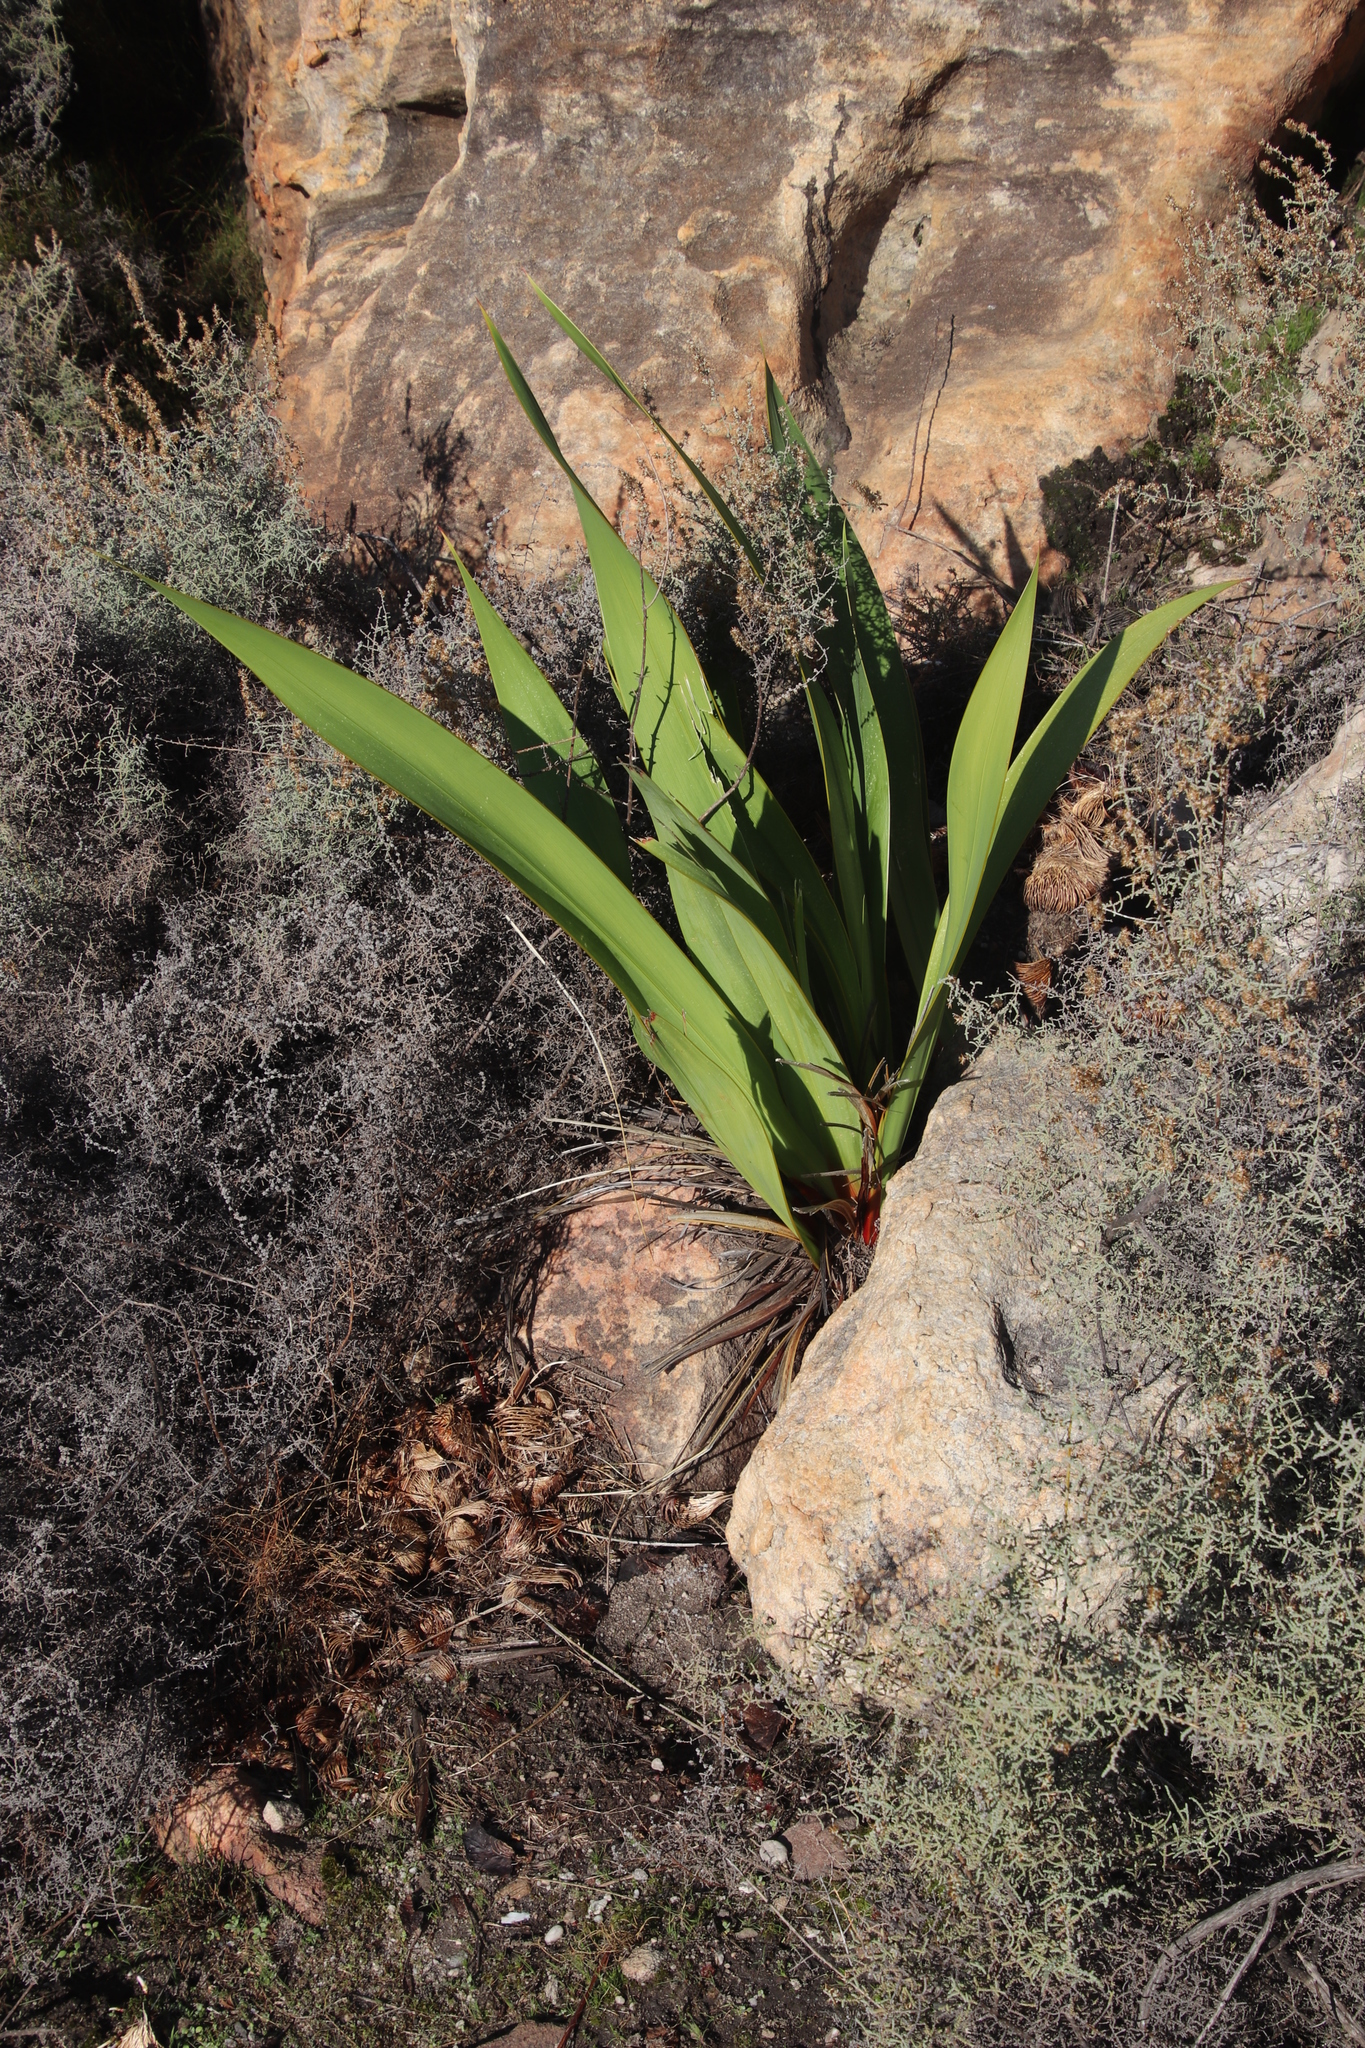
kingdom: Plantae
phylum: Tracheophyta
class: Liliopsida
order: Asparagales
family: Iridaceae
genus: Watsonia
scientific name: Watsonia vanderspuyae
